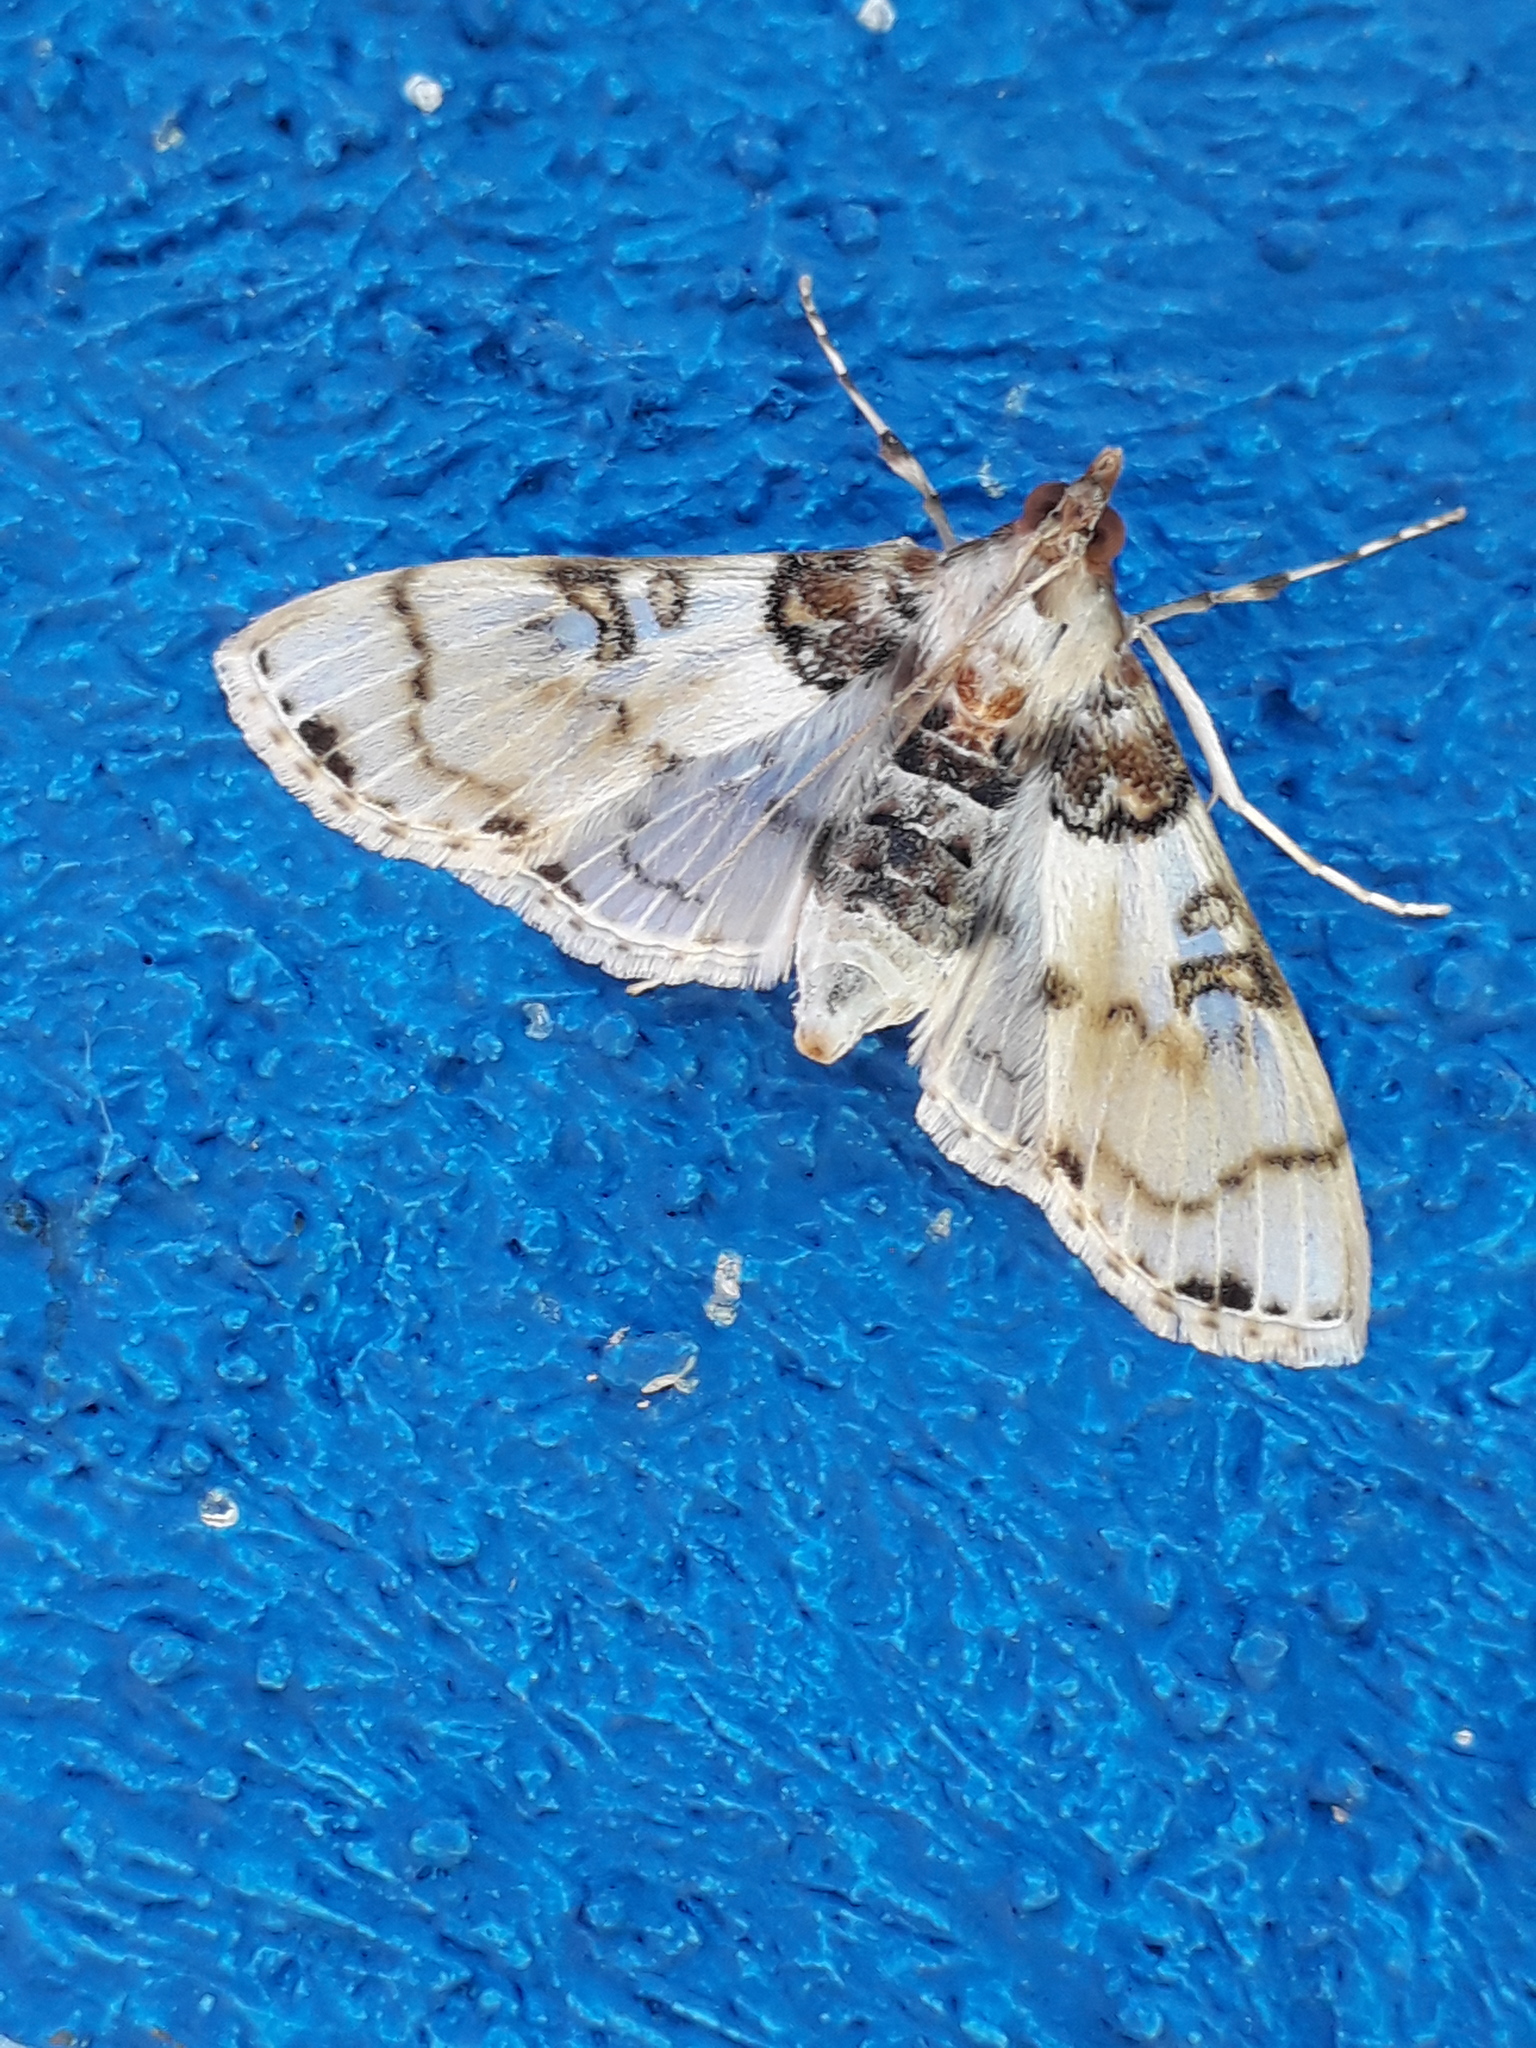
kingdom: Animalia
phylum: Arthropoda
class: Insecta
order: Lepidoptera
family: Crambidae
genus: Azochis
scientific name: Azochis rufidiscalis
